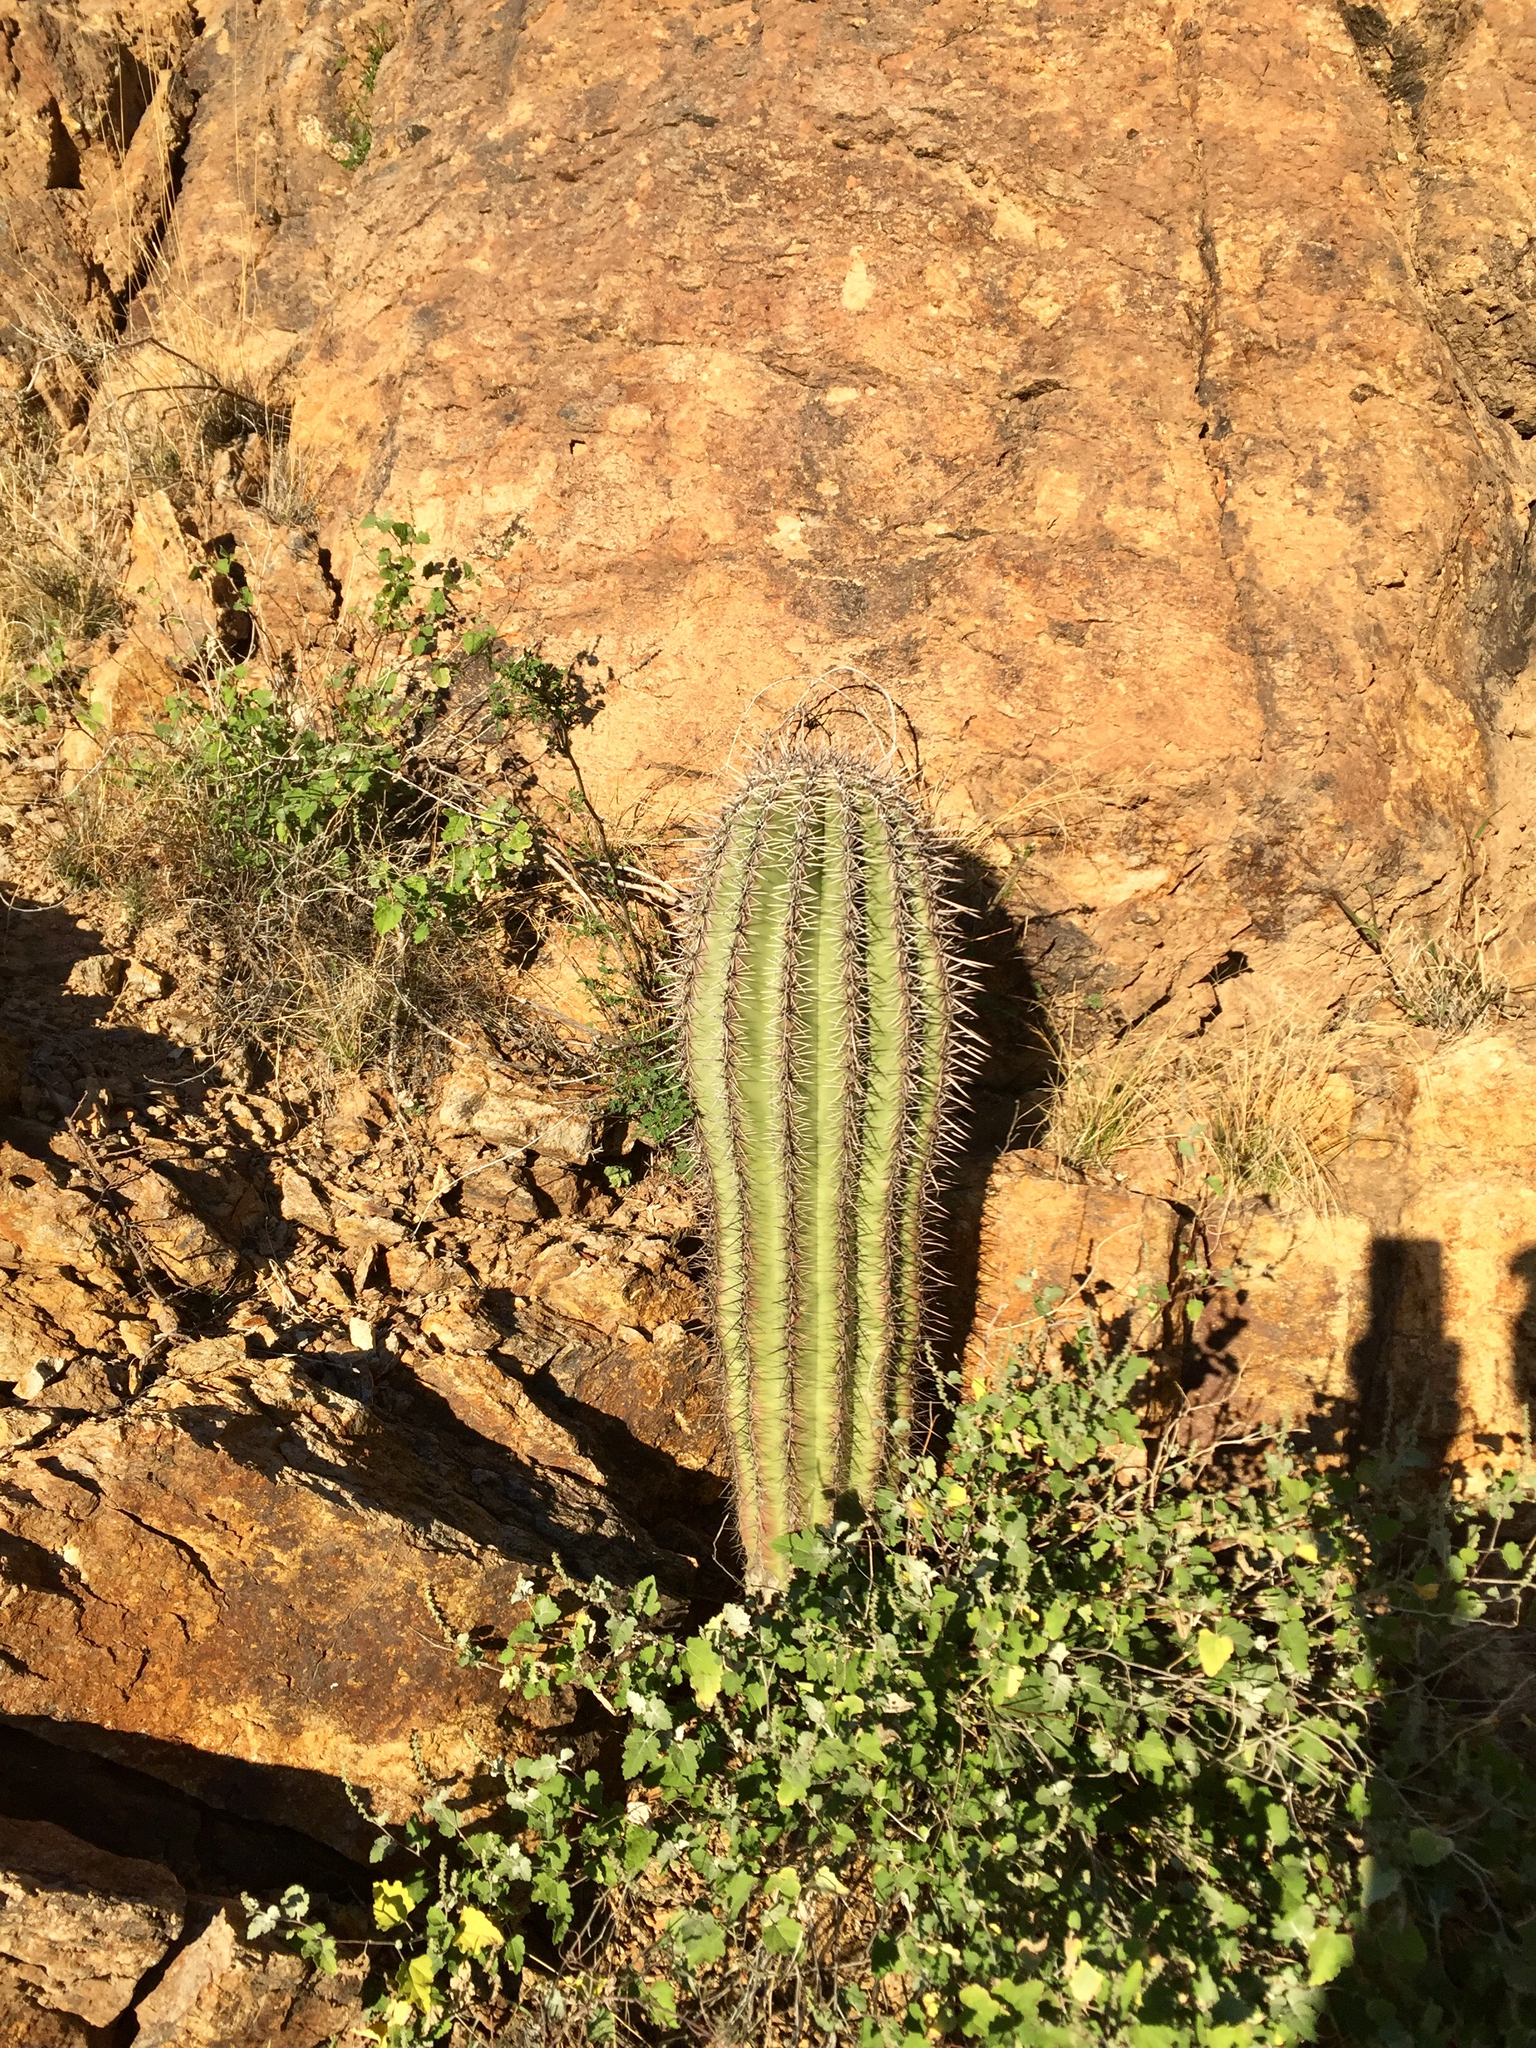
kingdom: Plantae
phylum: Tracheophyta
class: Magnoliopsida
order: Caryophyllales
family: Cactaceae
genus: Carnegiea
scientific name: Carnegiea gigantea
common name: Saguaro
